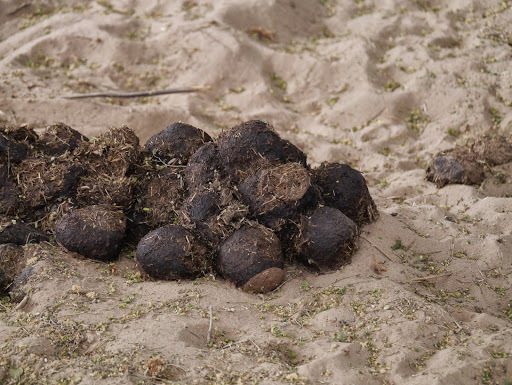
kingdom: Animalia
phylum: Chordata
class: Mammalia
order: Artiodactyla
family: Hippopotamidae
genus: Hippopotamus
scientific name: Hippopotamus amphibius
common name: Common hippopotamus
